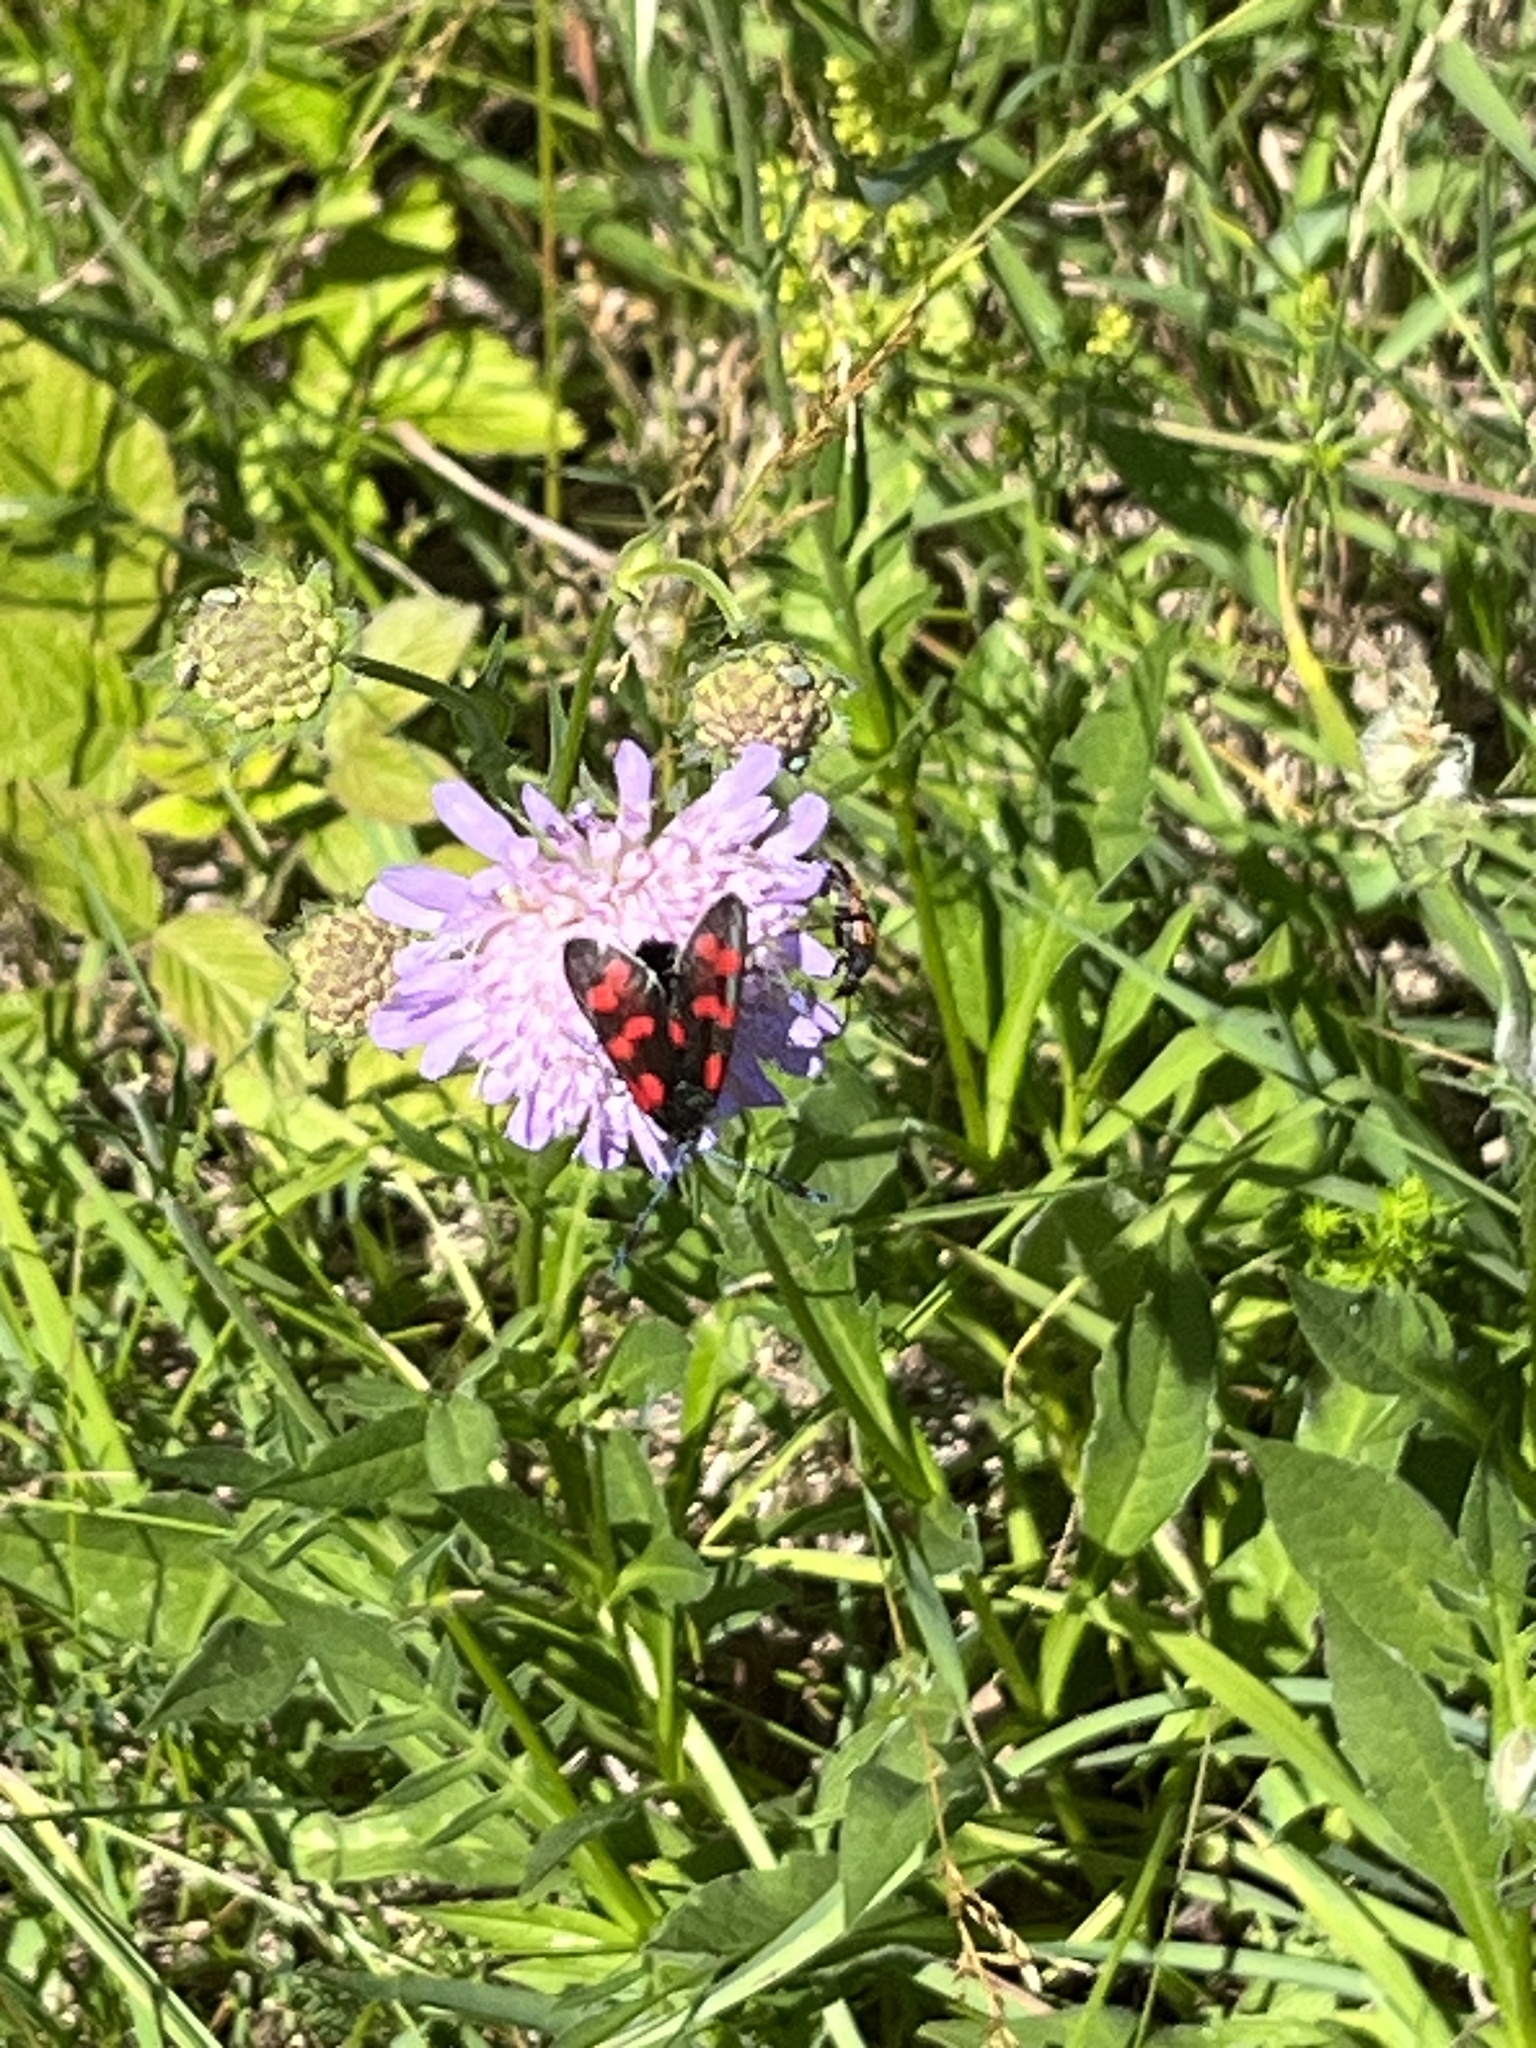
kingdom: Animalia
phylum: Arthropoda
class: Insecta
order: Lepidoptera
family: Zygaenidae
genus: Zygaena
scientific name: Zygaena filipendulae
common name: Six-spot burnet
